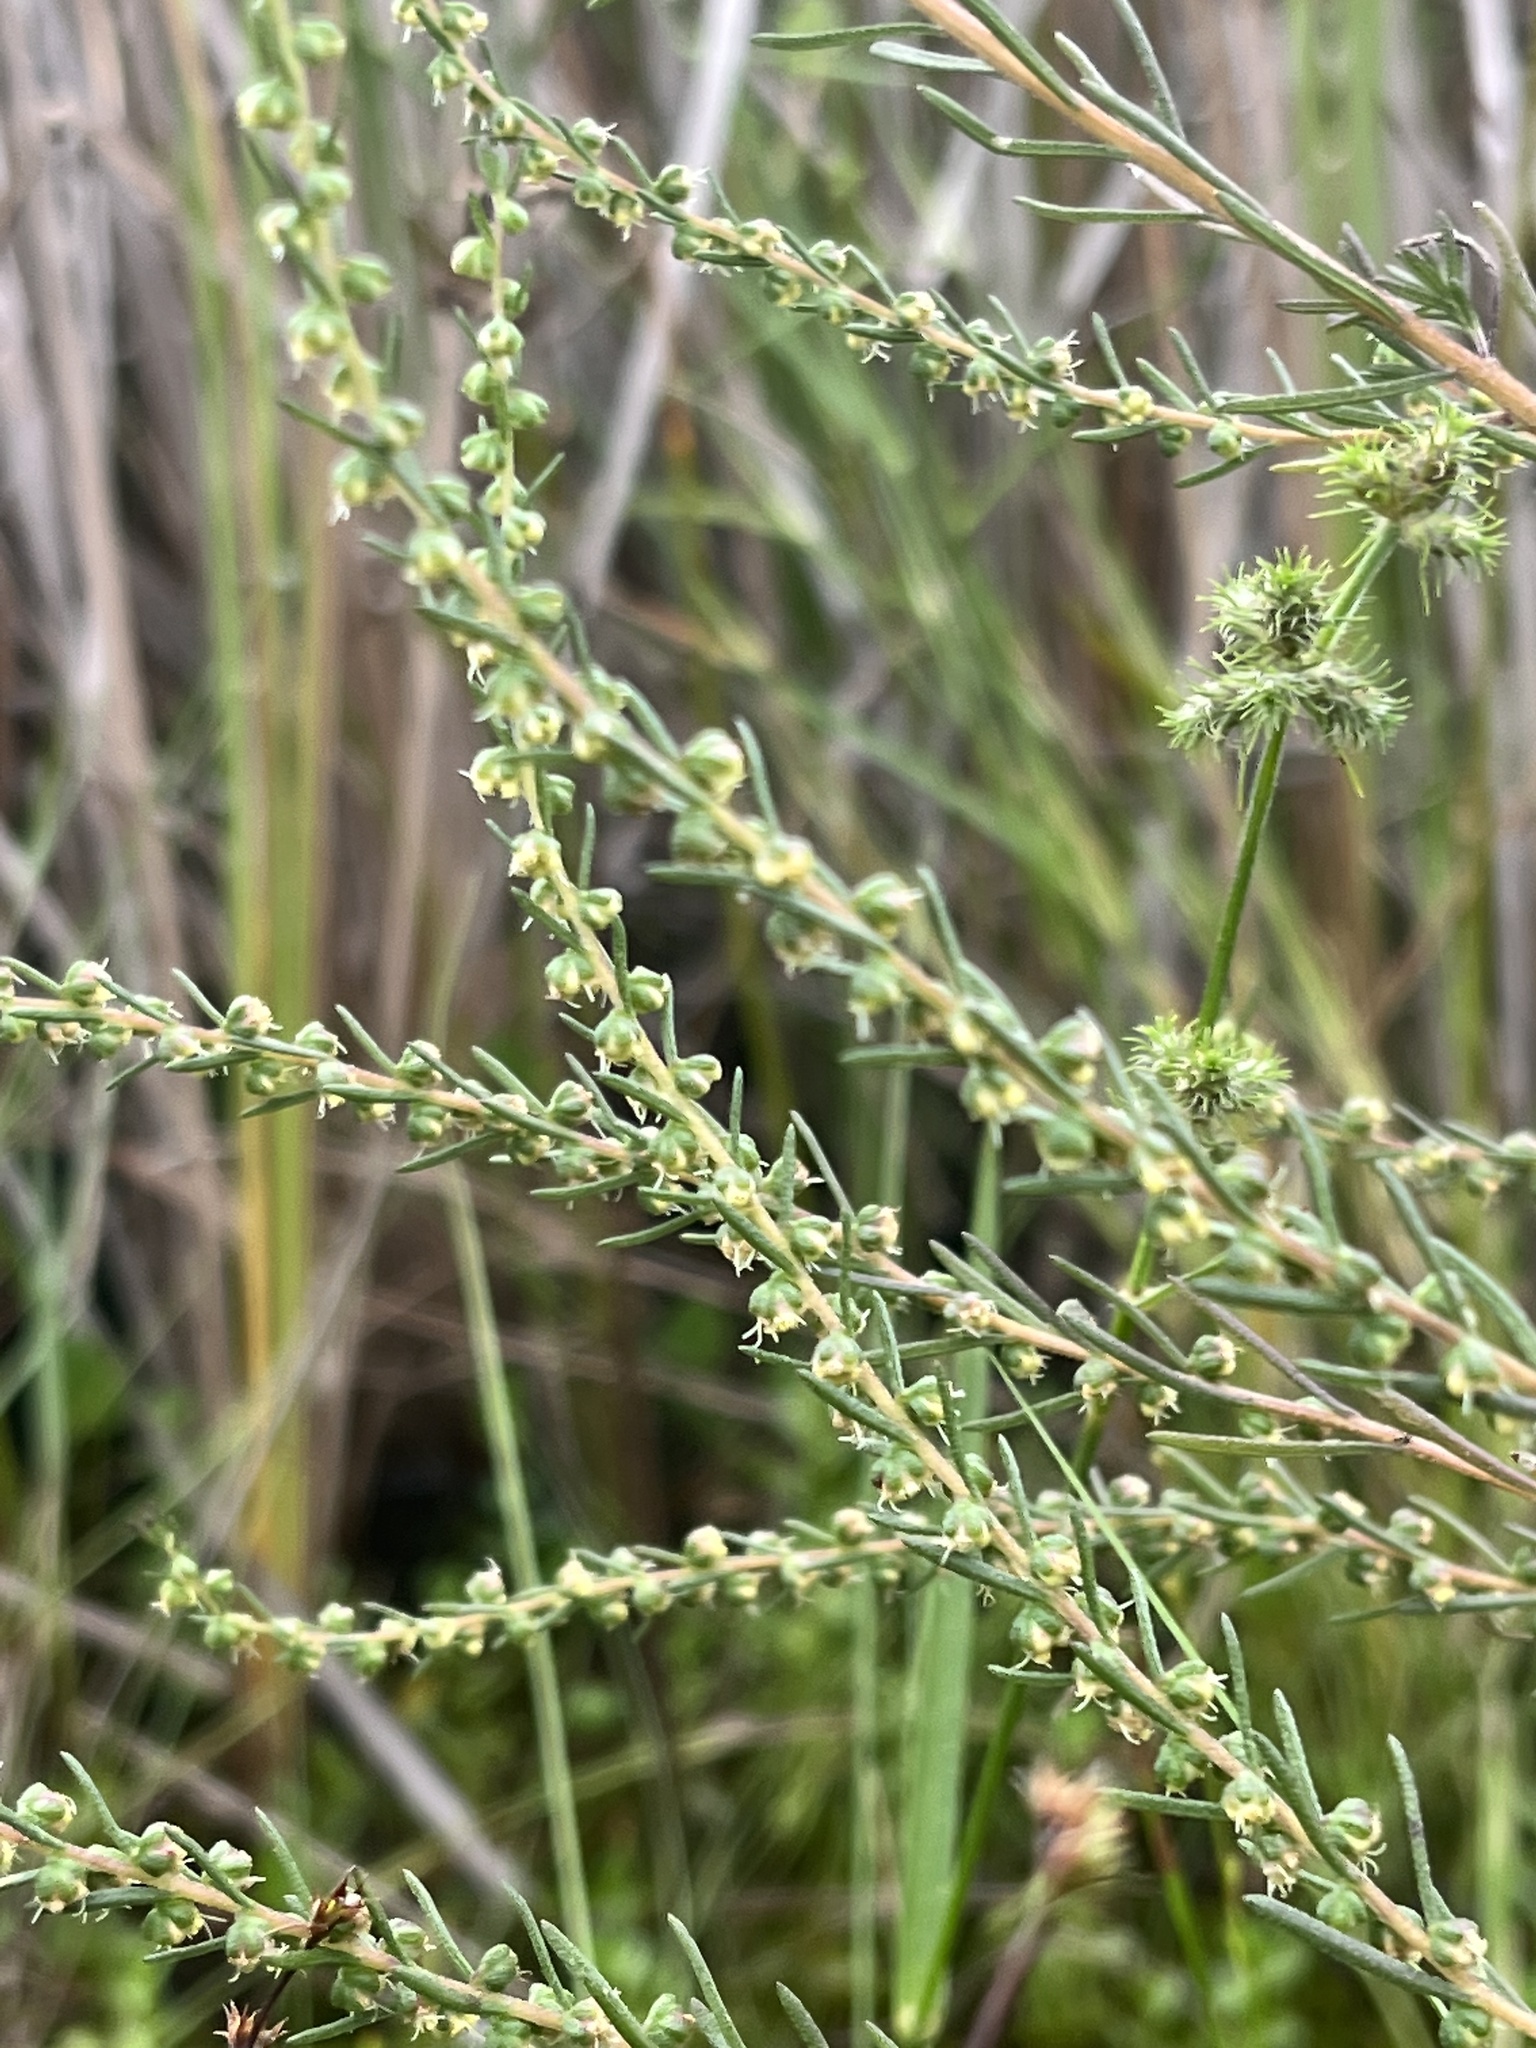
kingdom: Plantae
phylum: Tracheophyta
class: Magnoliopsida
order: Asterales
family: Asteraceae
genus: Iva
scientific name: Iva microcephala
